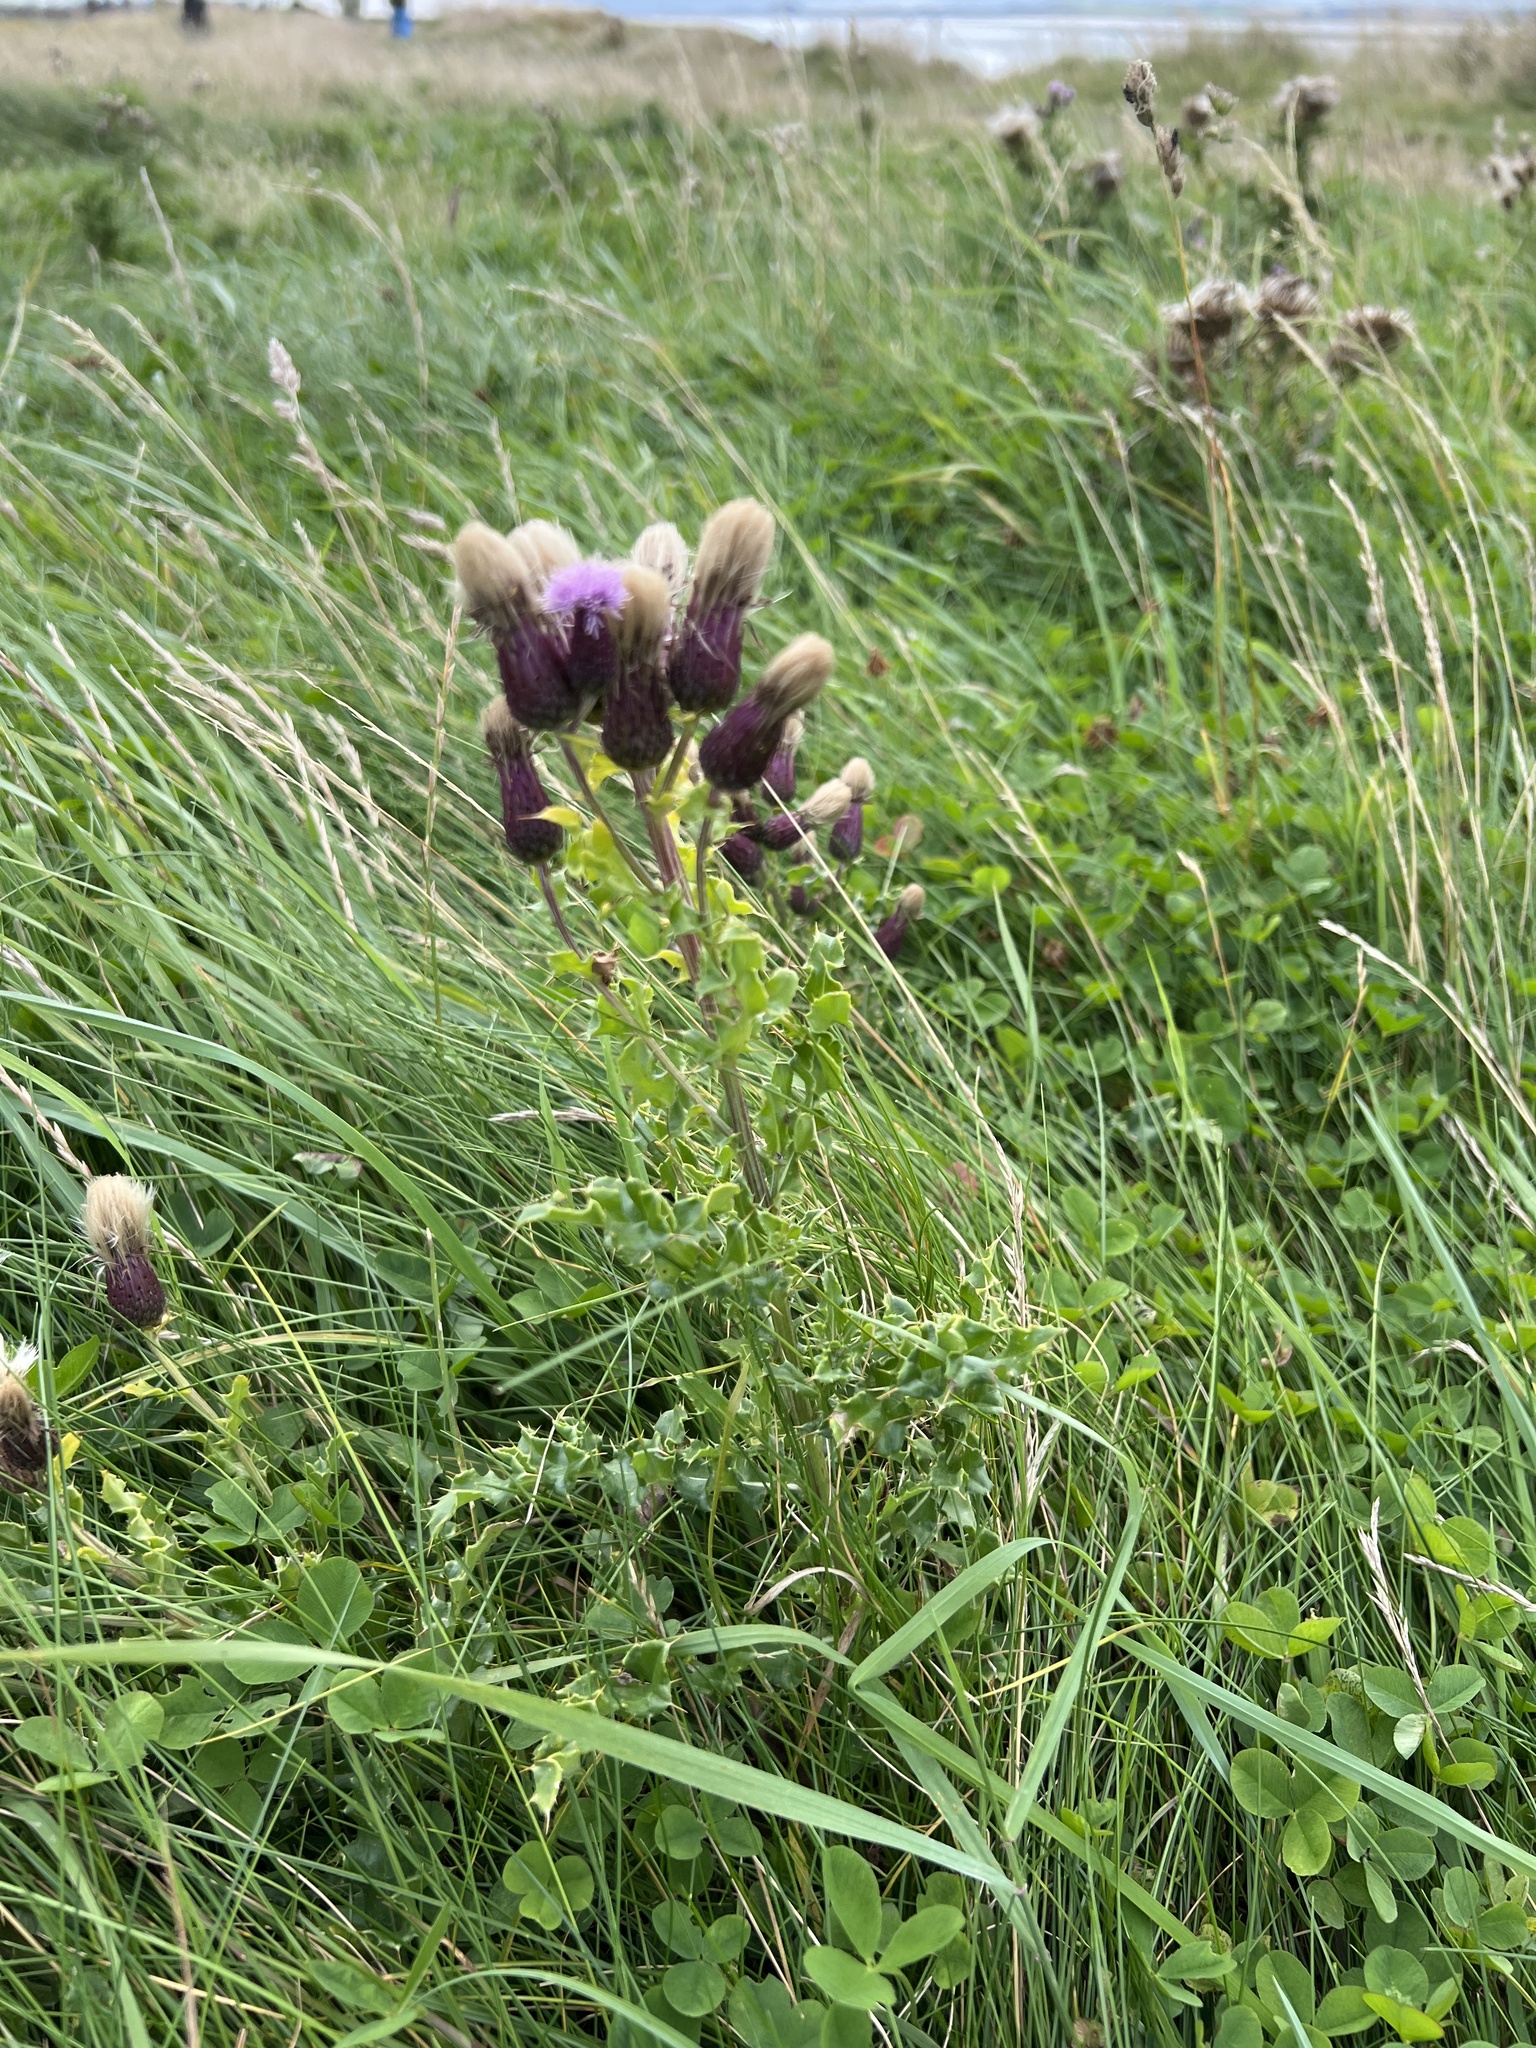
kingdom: Plantae
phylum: Tracheophyta
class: Magnoliopsida
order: Asterales
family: Asteraceae
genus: Cirsium
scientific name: Cirsium arvense
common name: Creeping thistle
